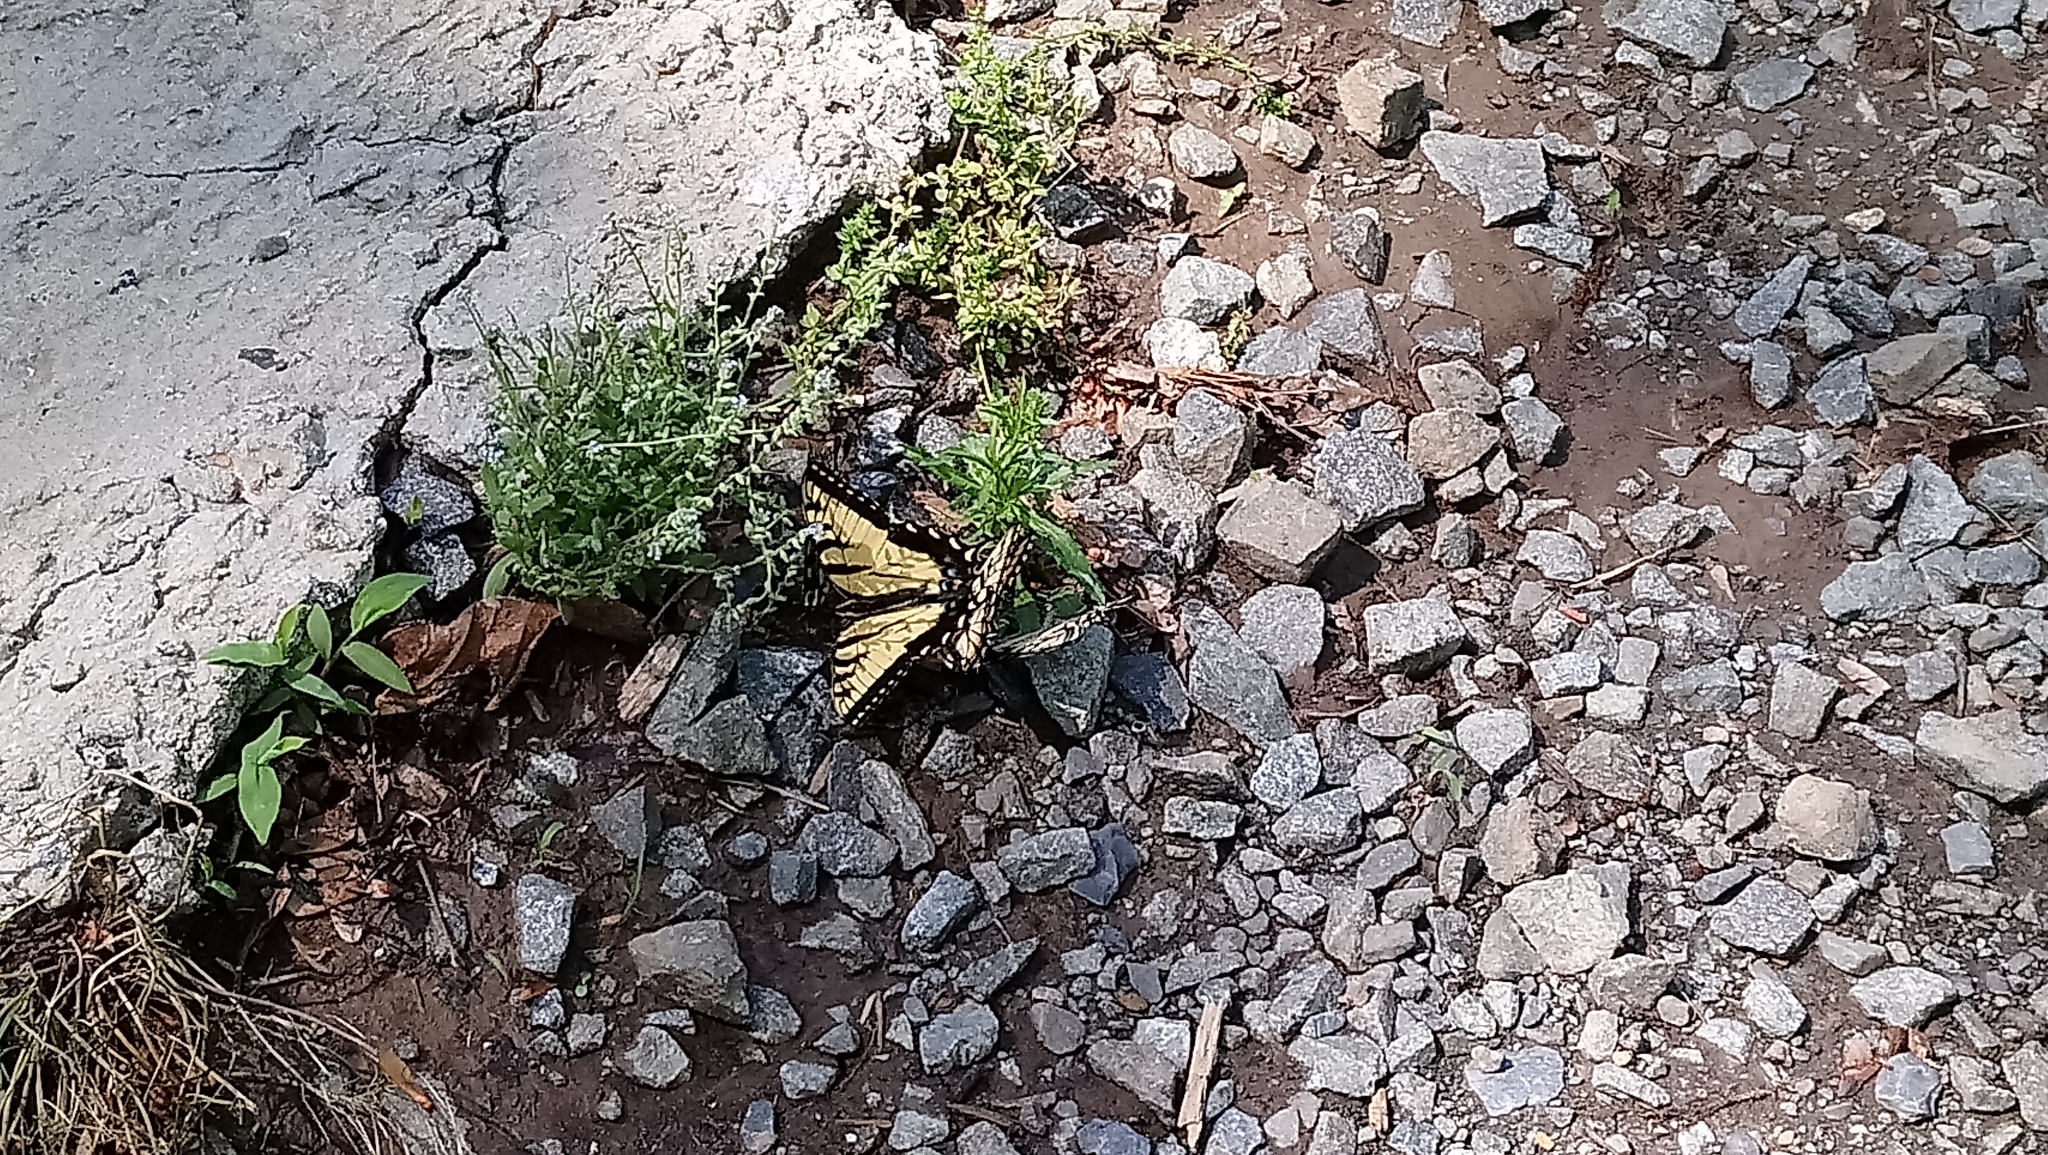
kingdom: Animalia
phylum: Arthropoda
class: Insecta
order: Lepidoptera
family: Papilionidae
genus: Papilio
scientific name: Papilio glaucus
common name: Tiger swallowtail
